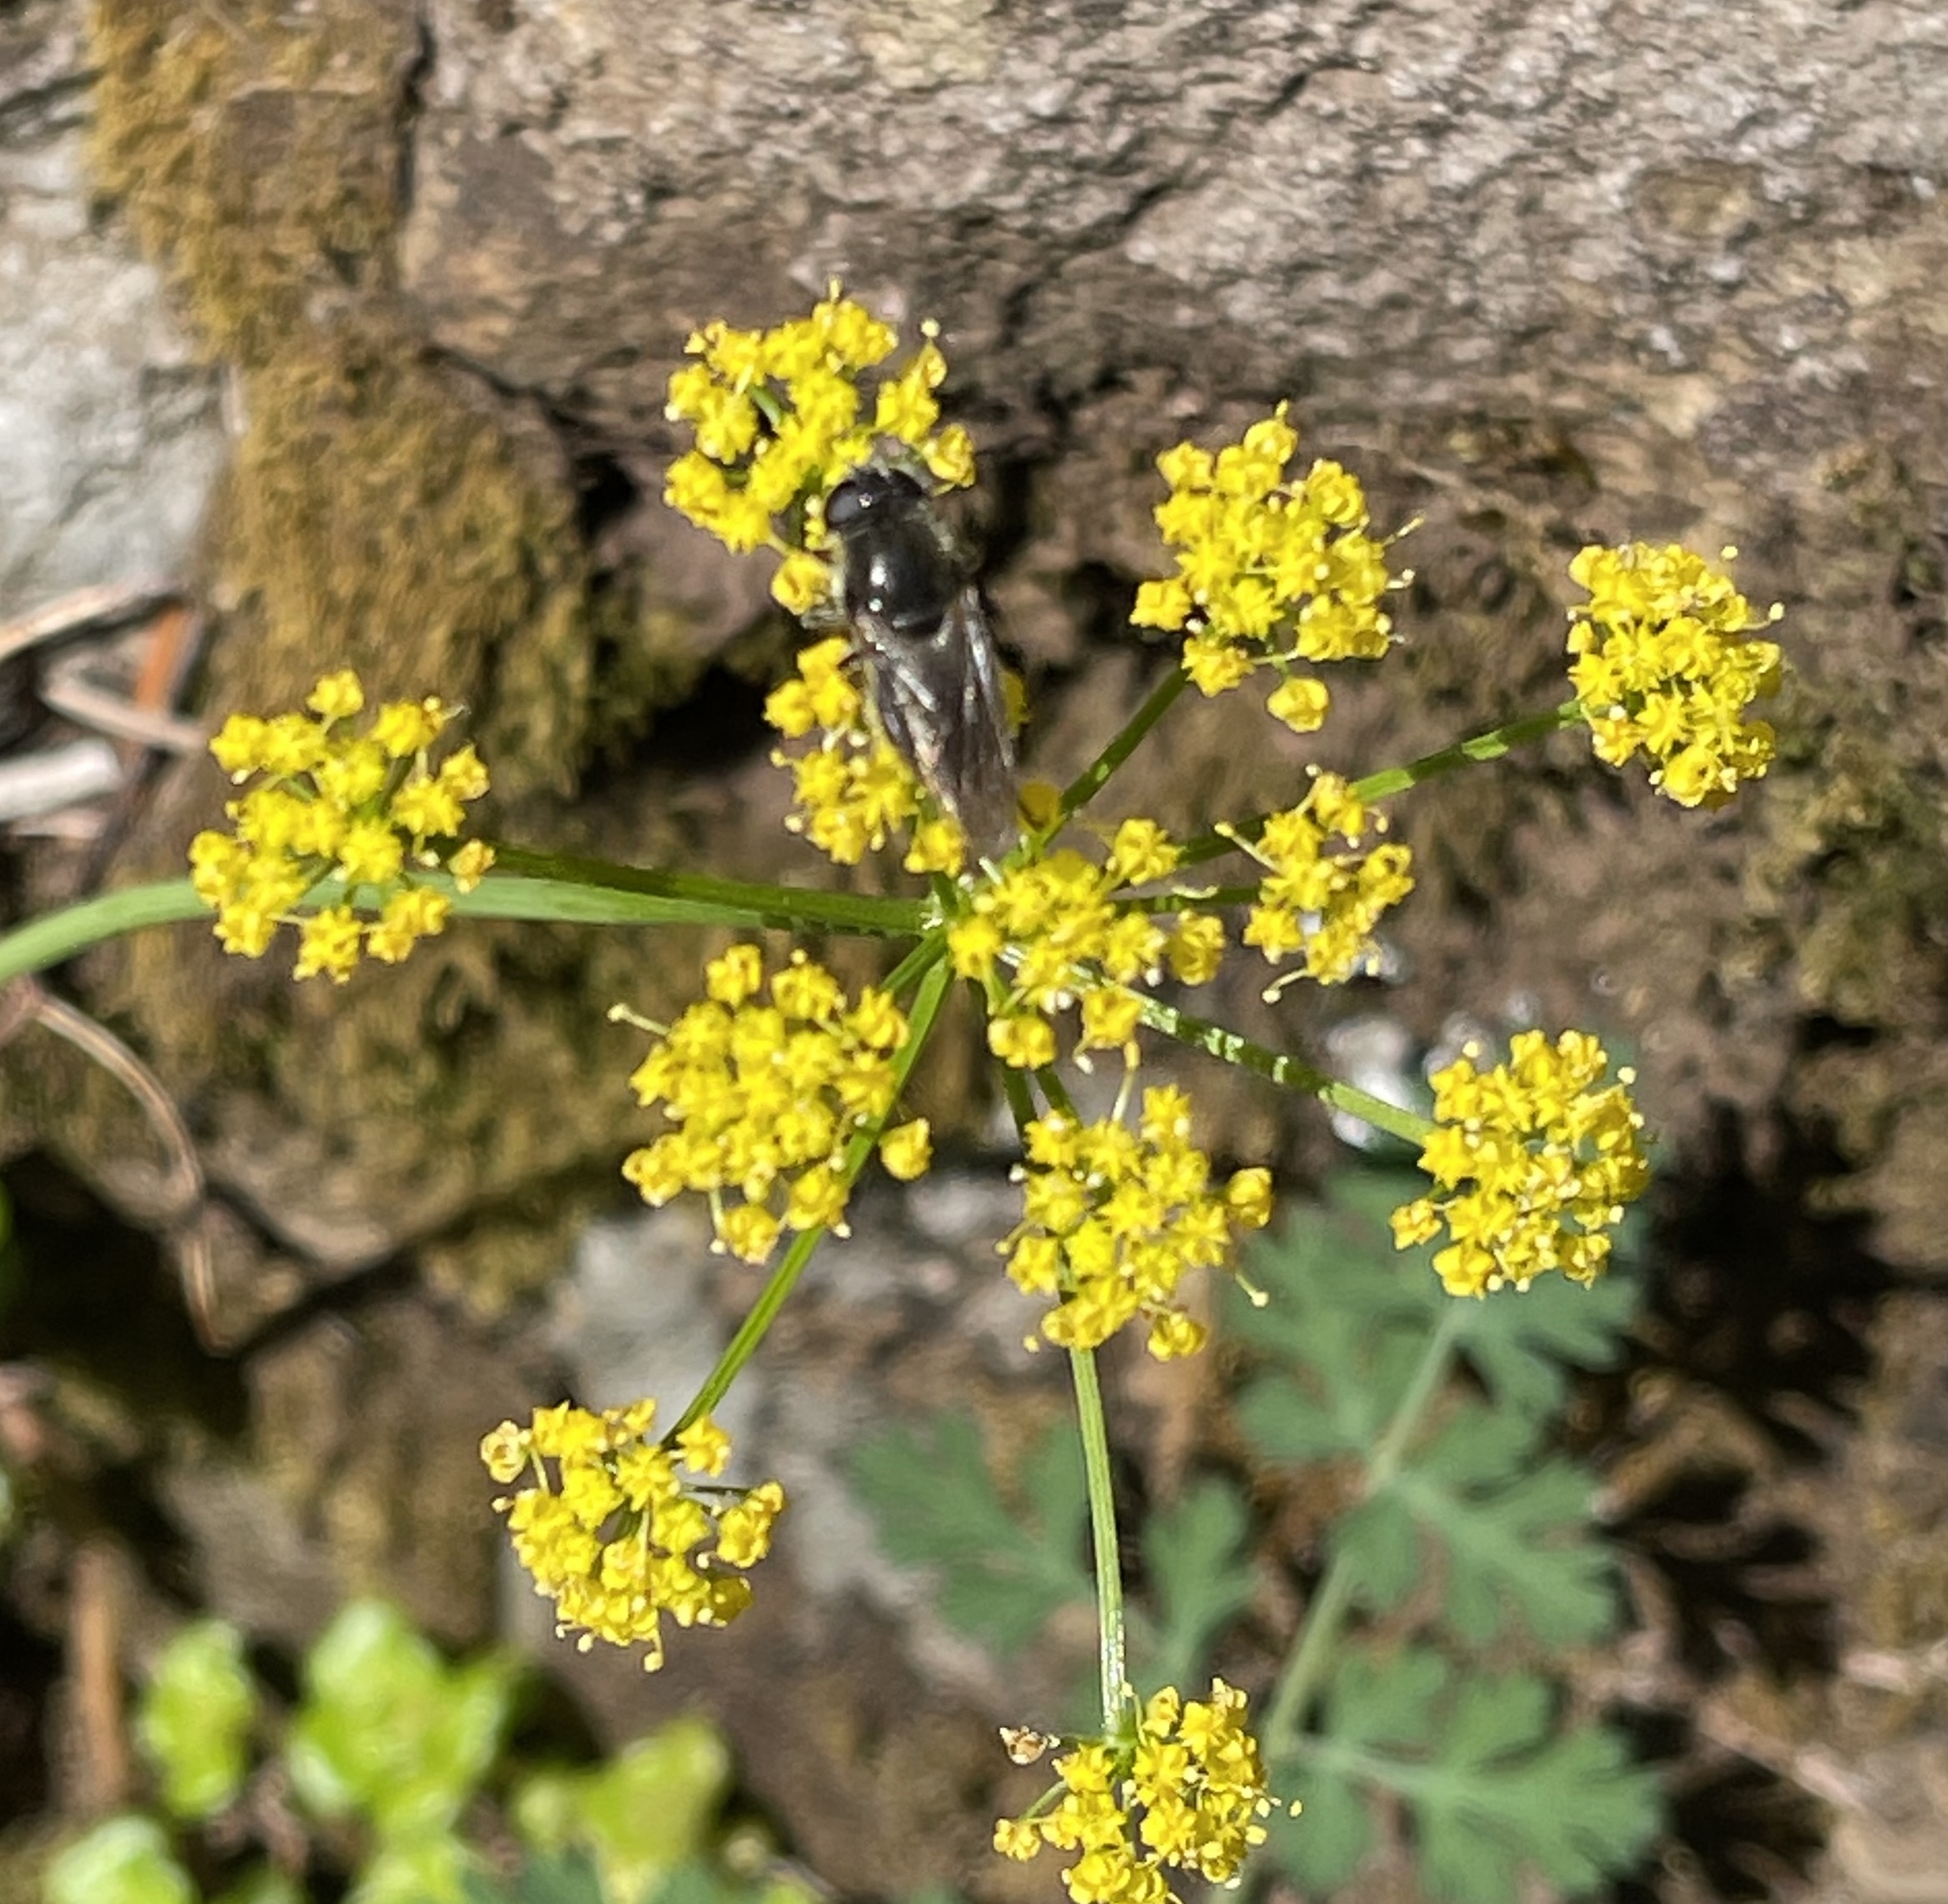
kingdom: Plantae
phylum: Tracheophyta
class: Magnoliopsida
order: Apiales
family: Apiaceae
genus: Lomatium
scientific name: Lomatium martindalei
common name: Cascade desert-parsley
